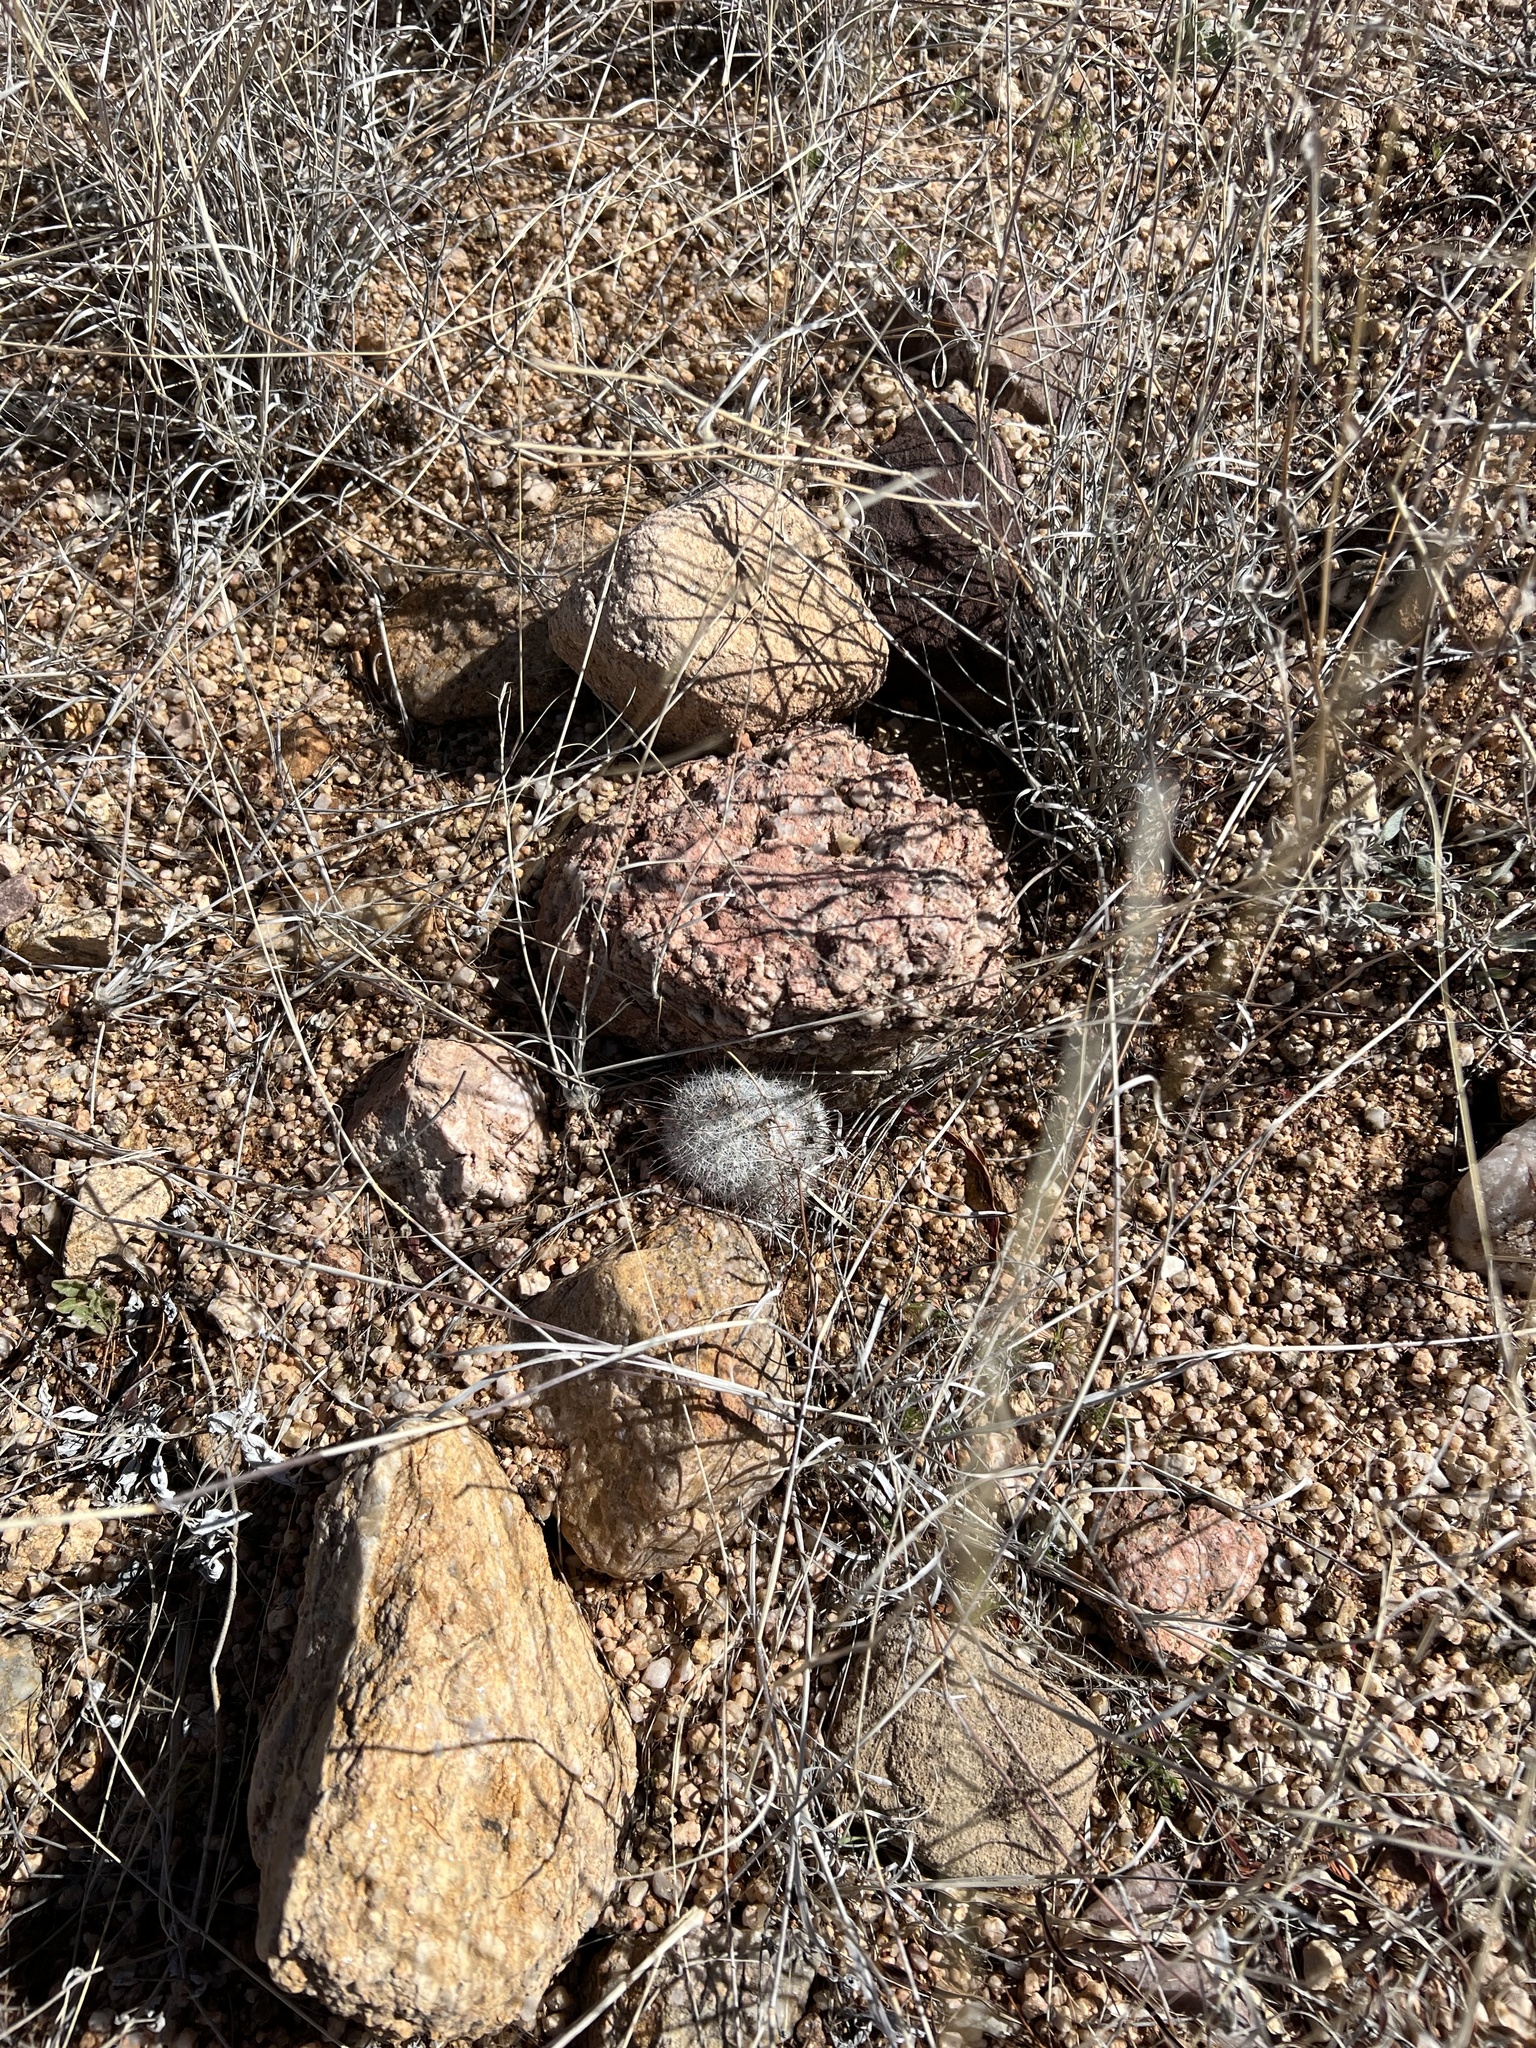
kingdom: Plantae
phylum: Tracheophyta
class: Magnoliopsida
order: Caryophyllales
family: Cactaceae
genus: Cochemiea
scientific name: Cochemiea grahamii
